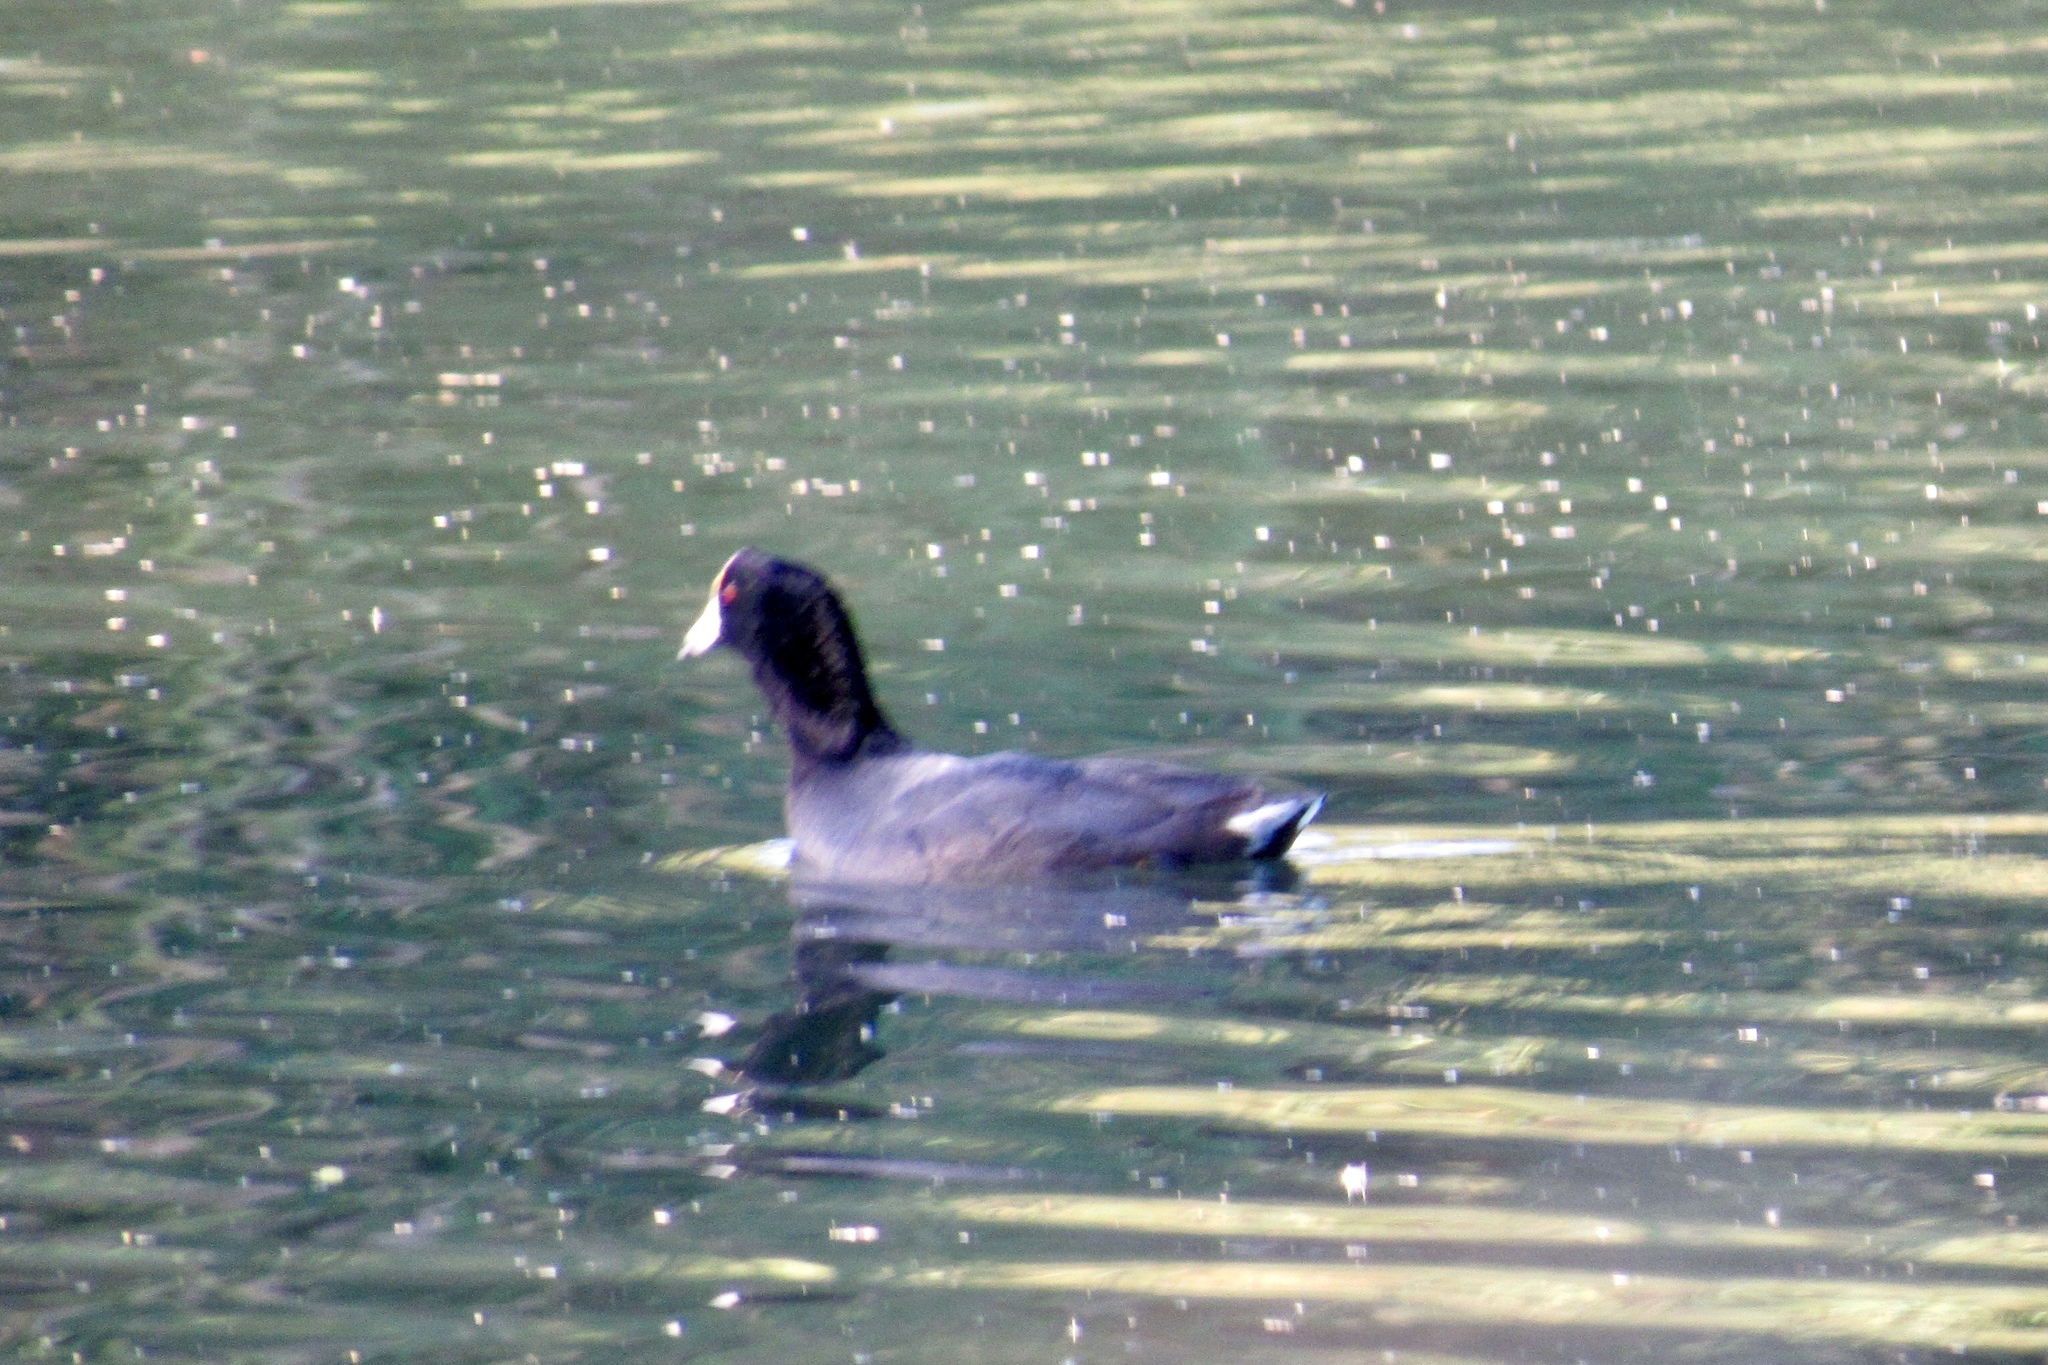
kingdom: Animalia
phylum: Chordata
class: Aves
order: Gruiformes
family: Rallidae
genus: Fulica
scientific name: Fulica americana
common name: American coot
